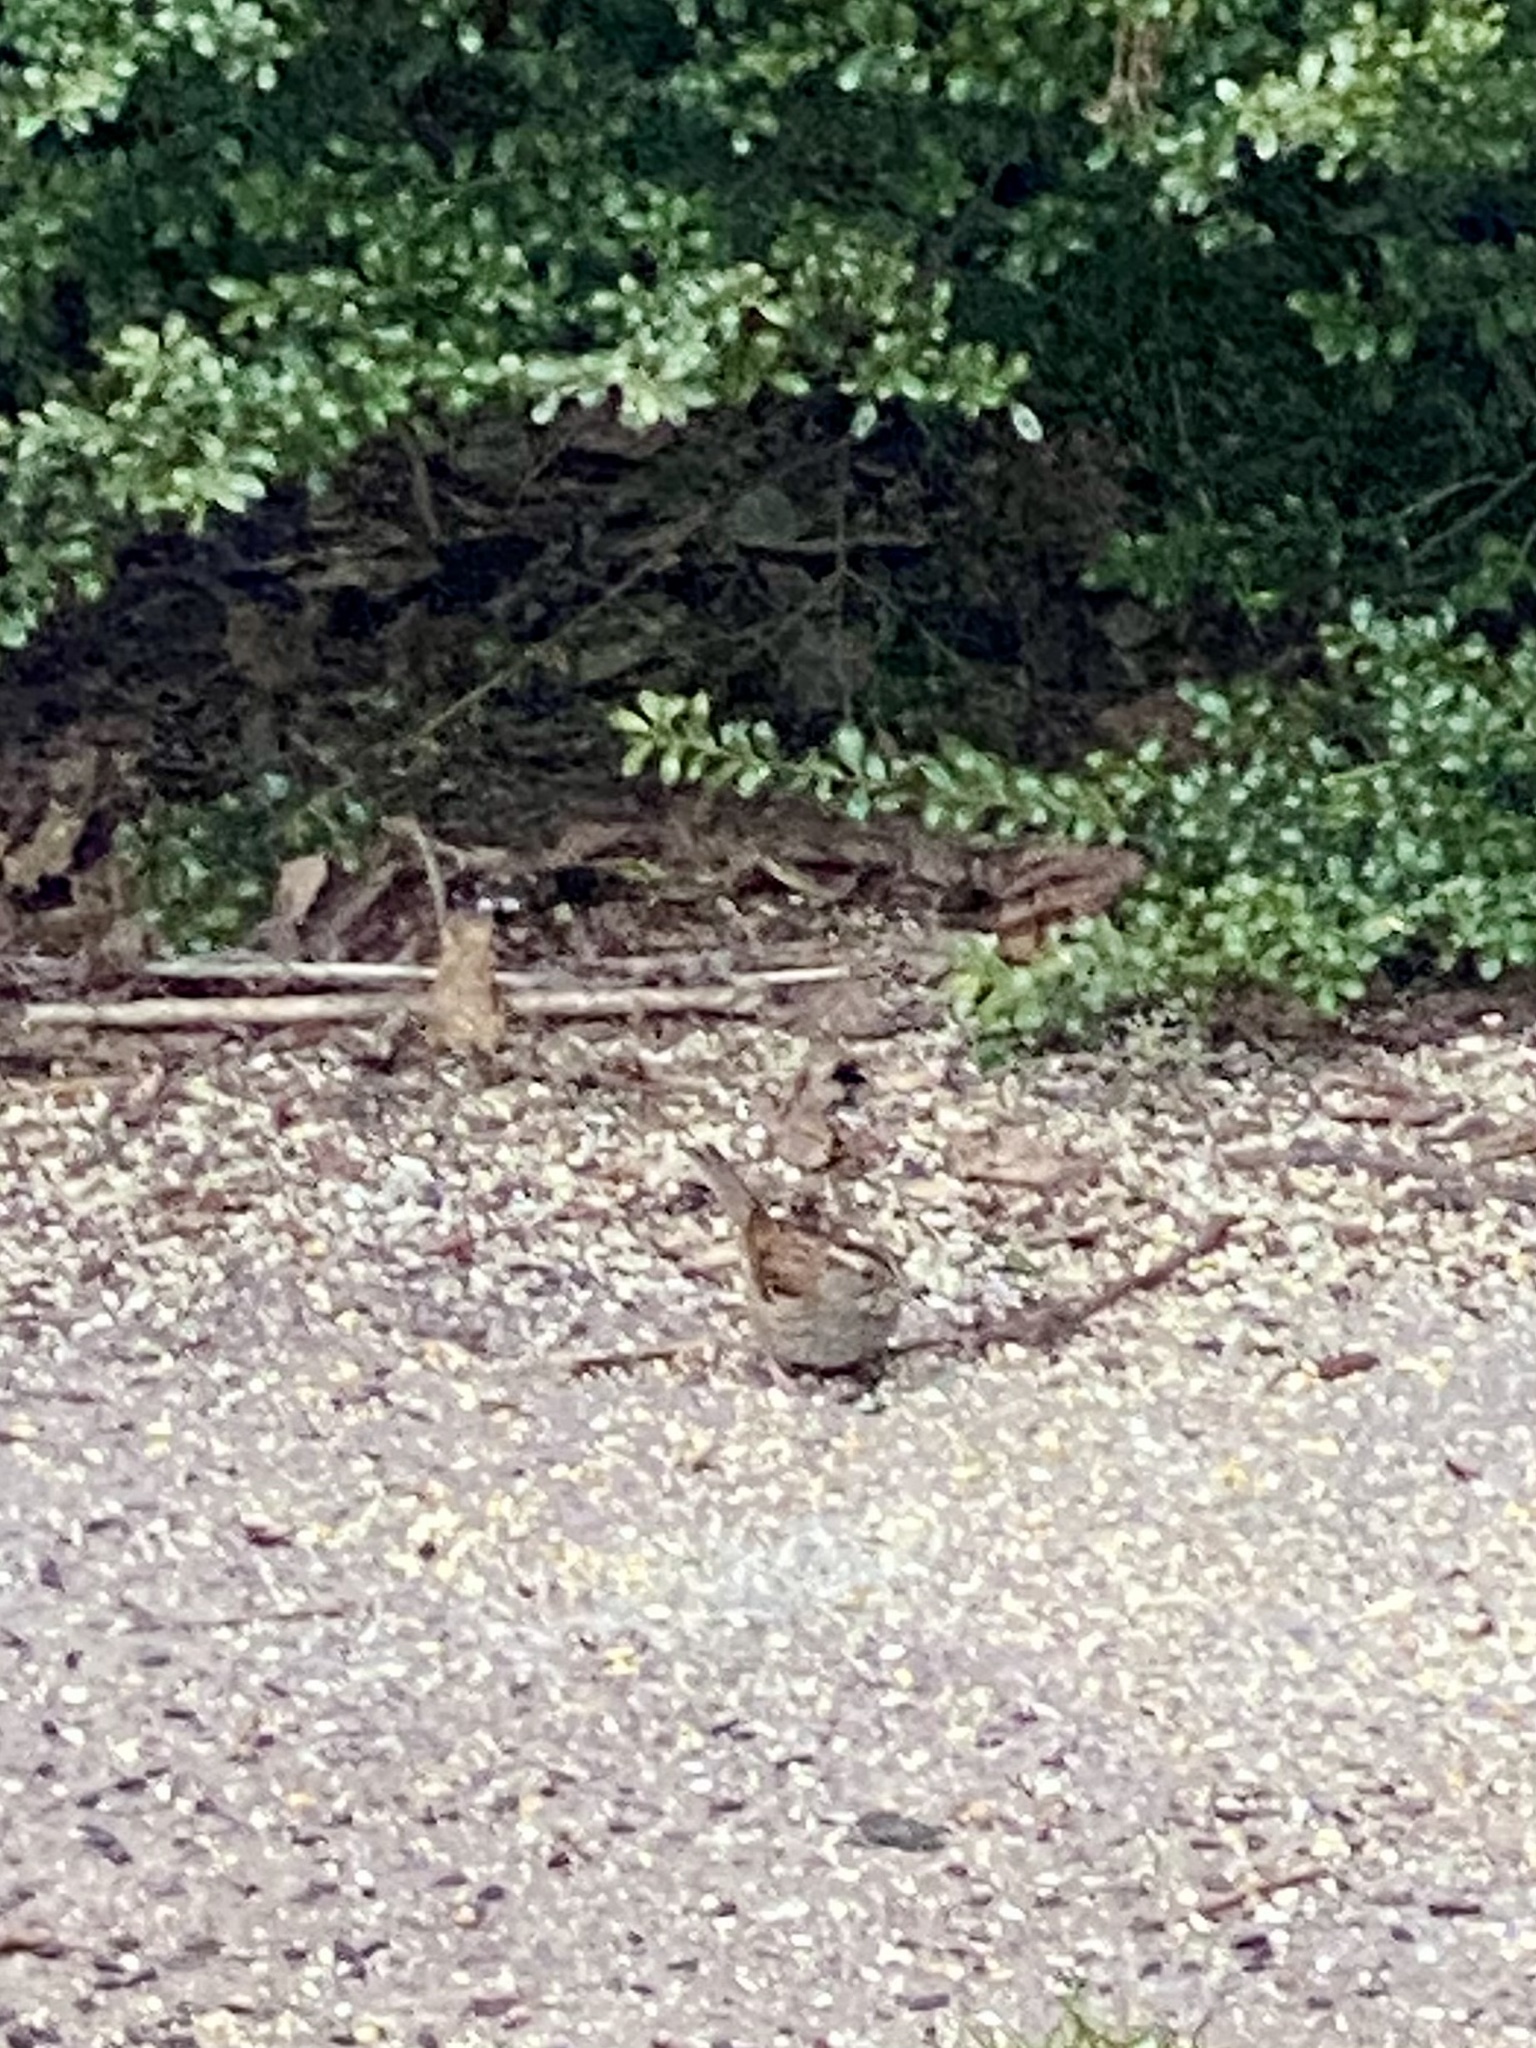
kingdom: Animalia
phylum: Chordata
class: Aves
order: Passeriformes
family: Passerellidae
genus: Zonotrichia
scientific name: Zonotrichia albicollis
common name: White-throated sparrow
